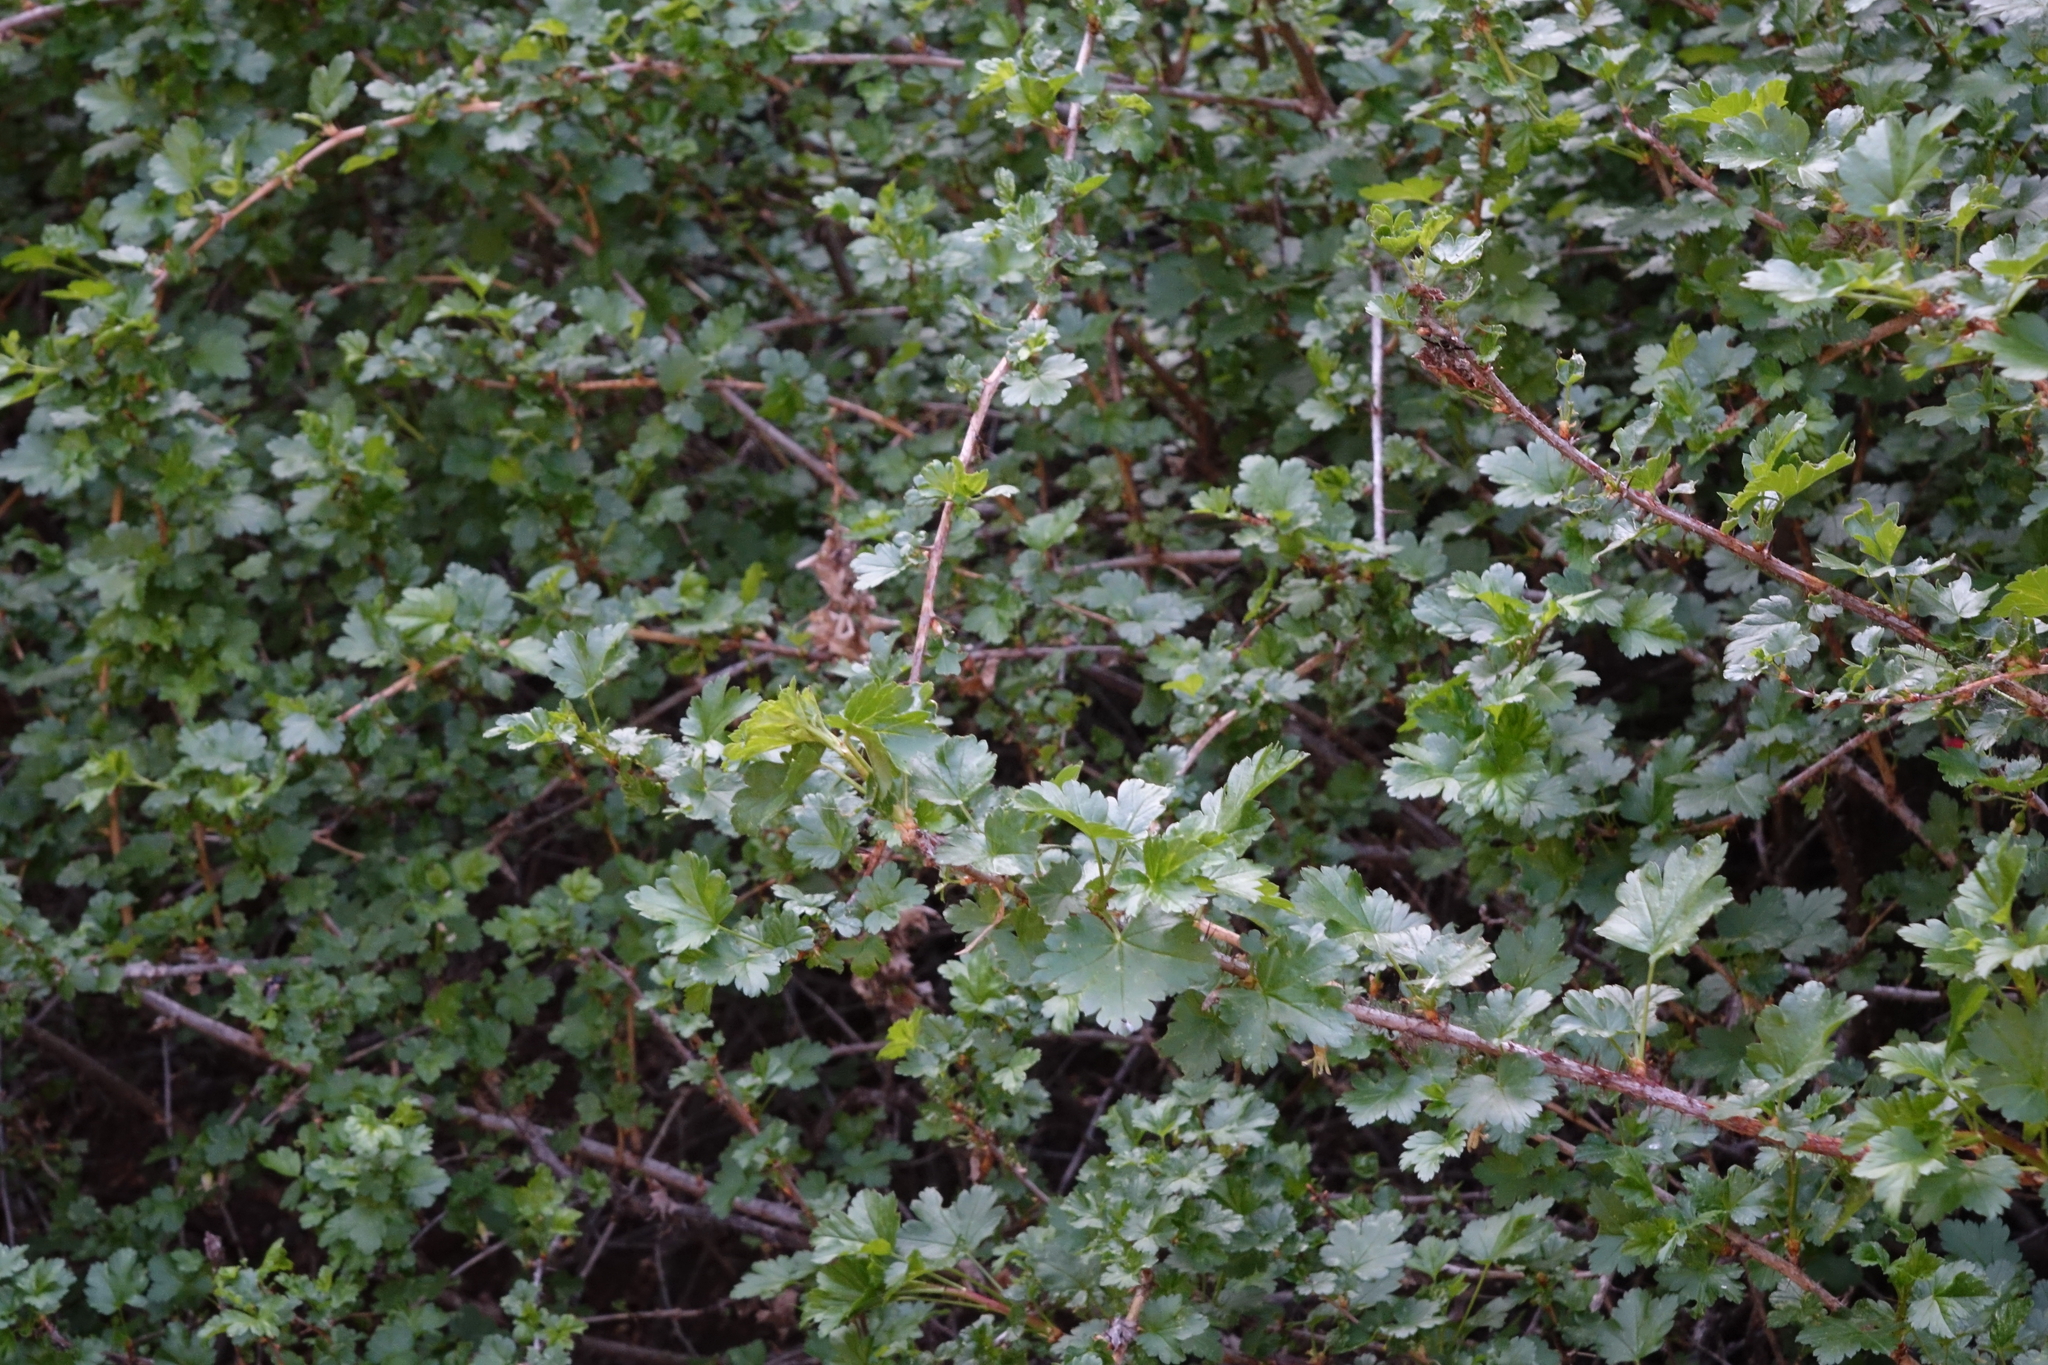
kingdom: Plantae
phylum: Tracheophyta
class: Magnoliopsida
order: Saxifragales
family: Grossulariaceae
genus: Ribes
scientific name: Ribes aciculare
